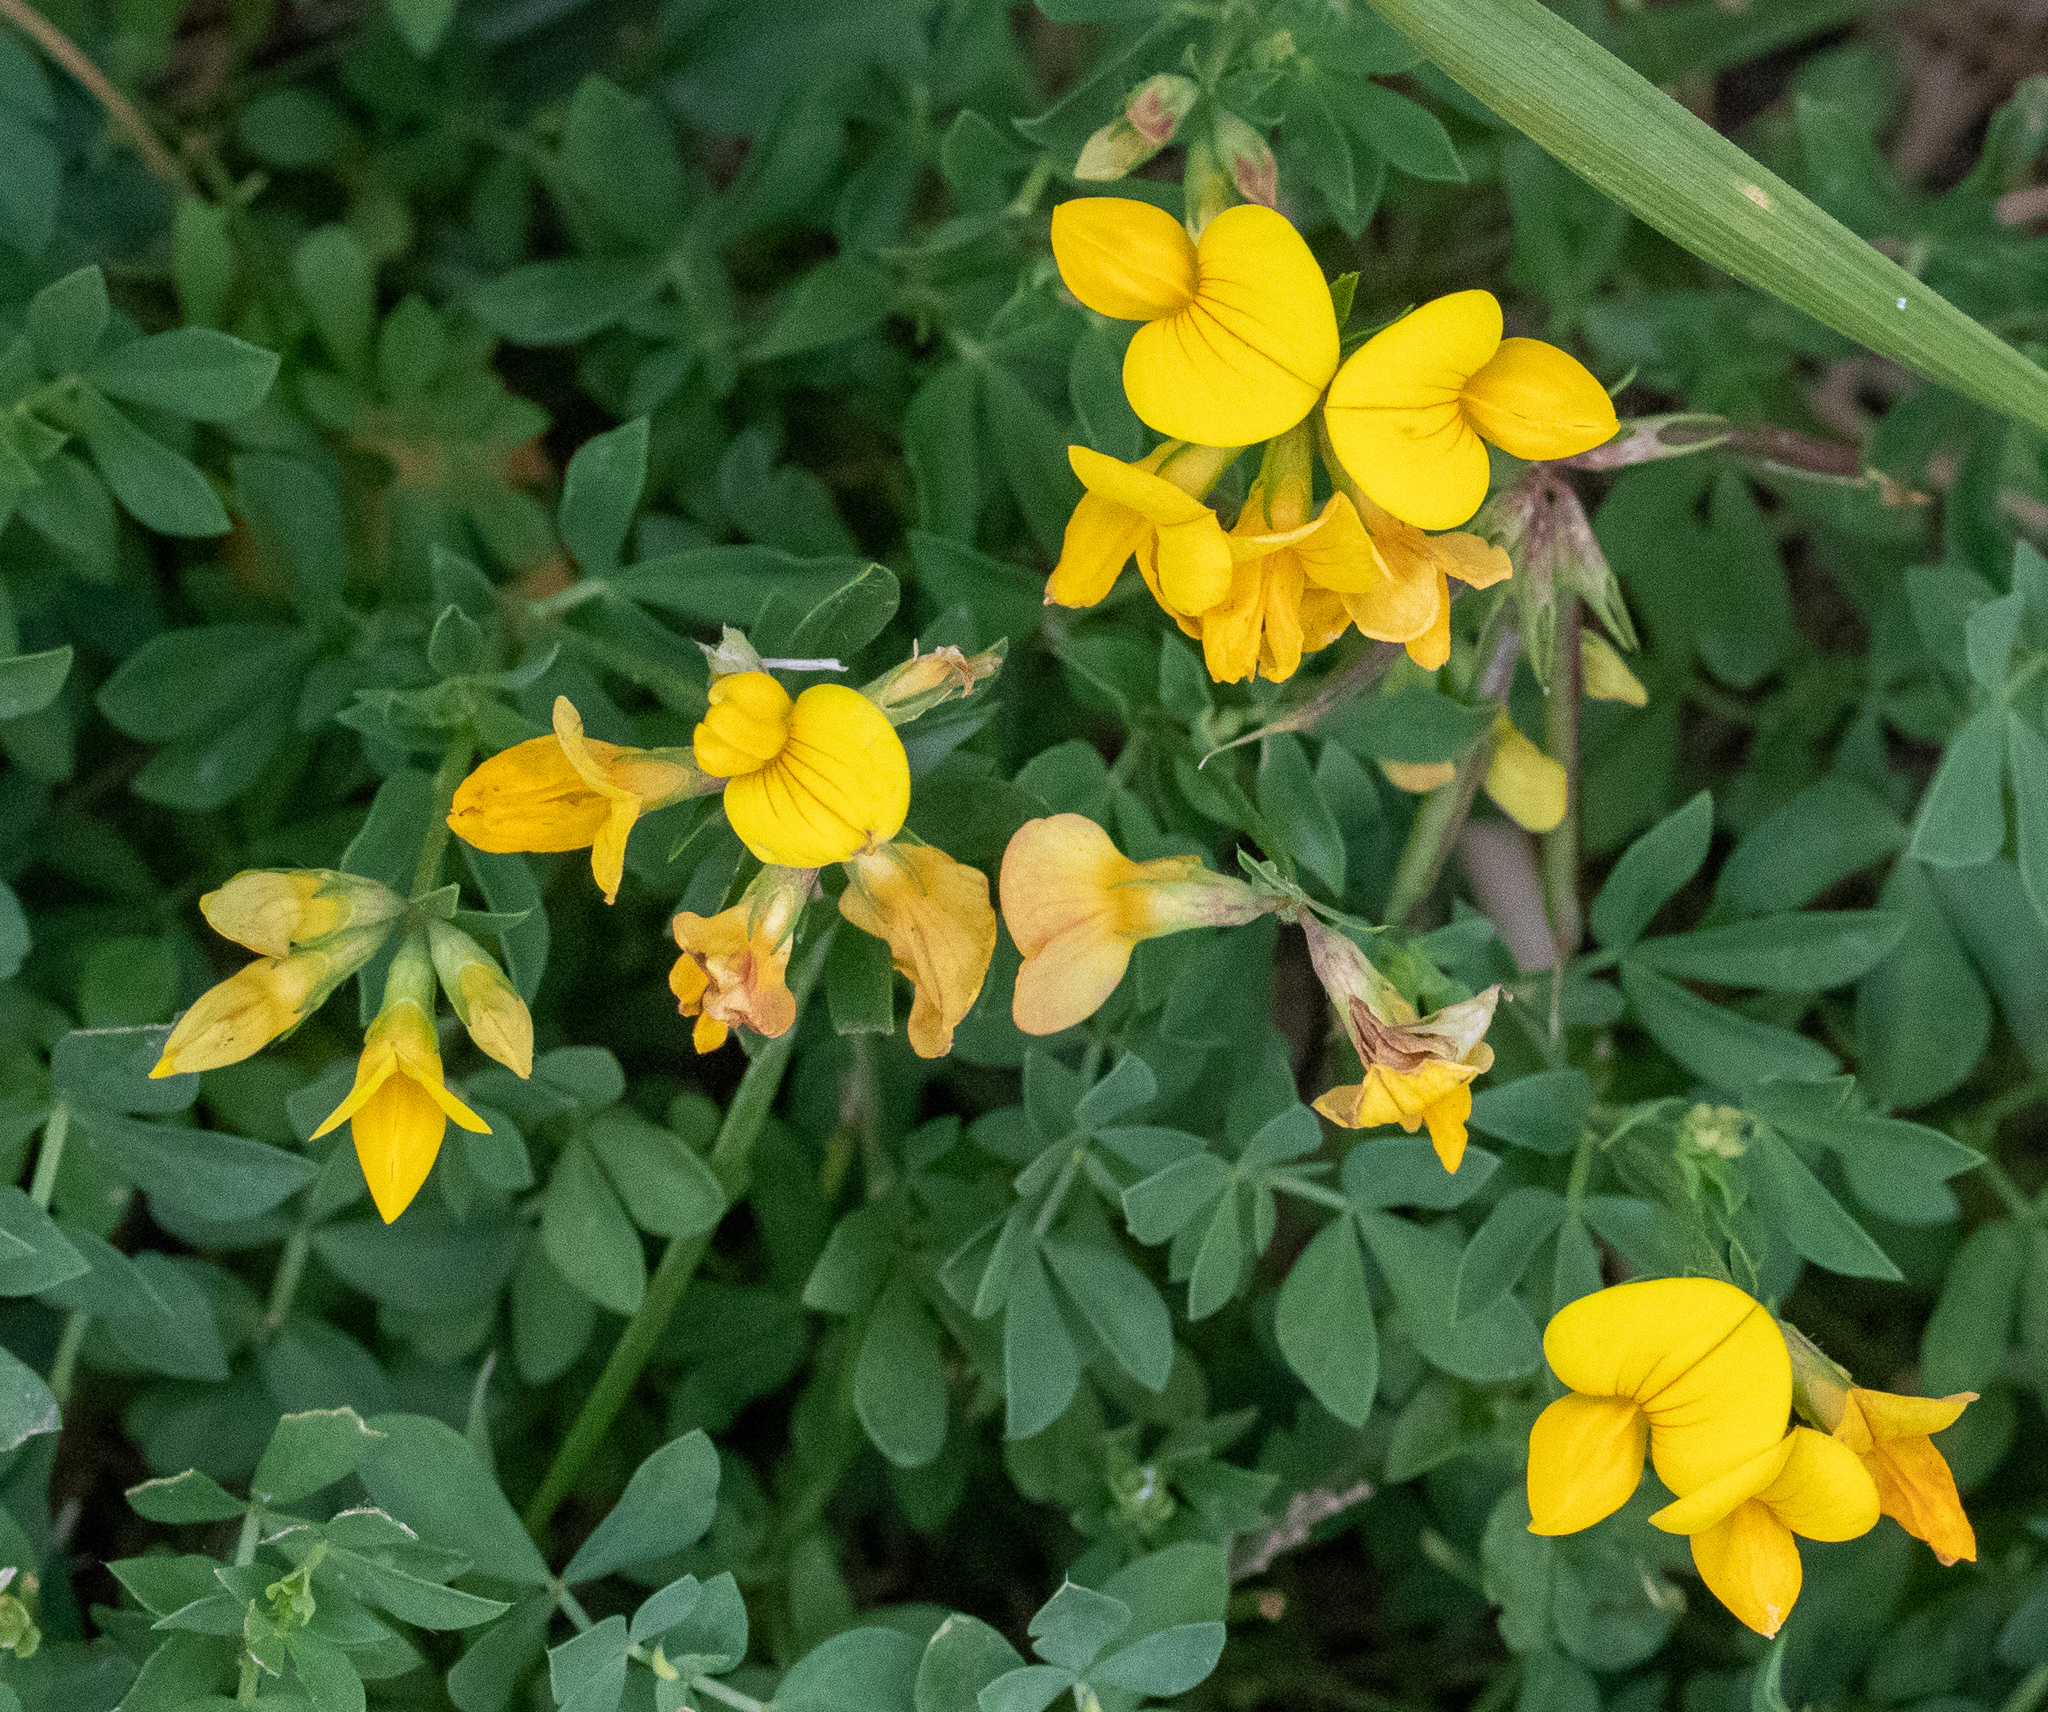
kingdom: Plantae
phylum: Tracheophyta
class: Magnoliopsida
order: Fabales
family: Fabaceae
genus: Lotus
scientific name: Lotus corniculatus
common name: Common bird's-foot-trefoil
